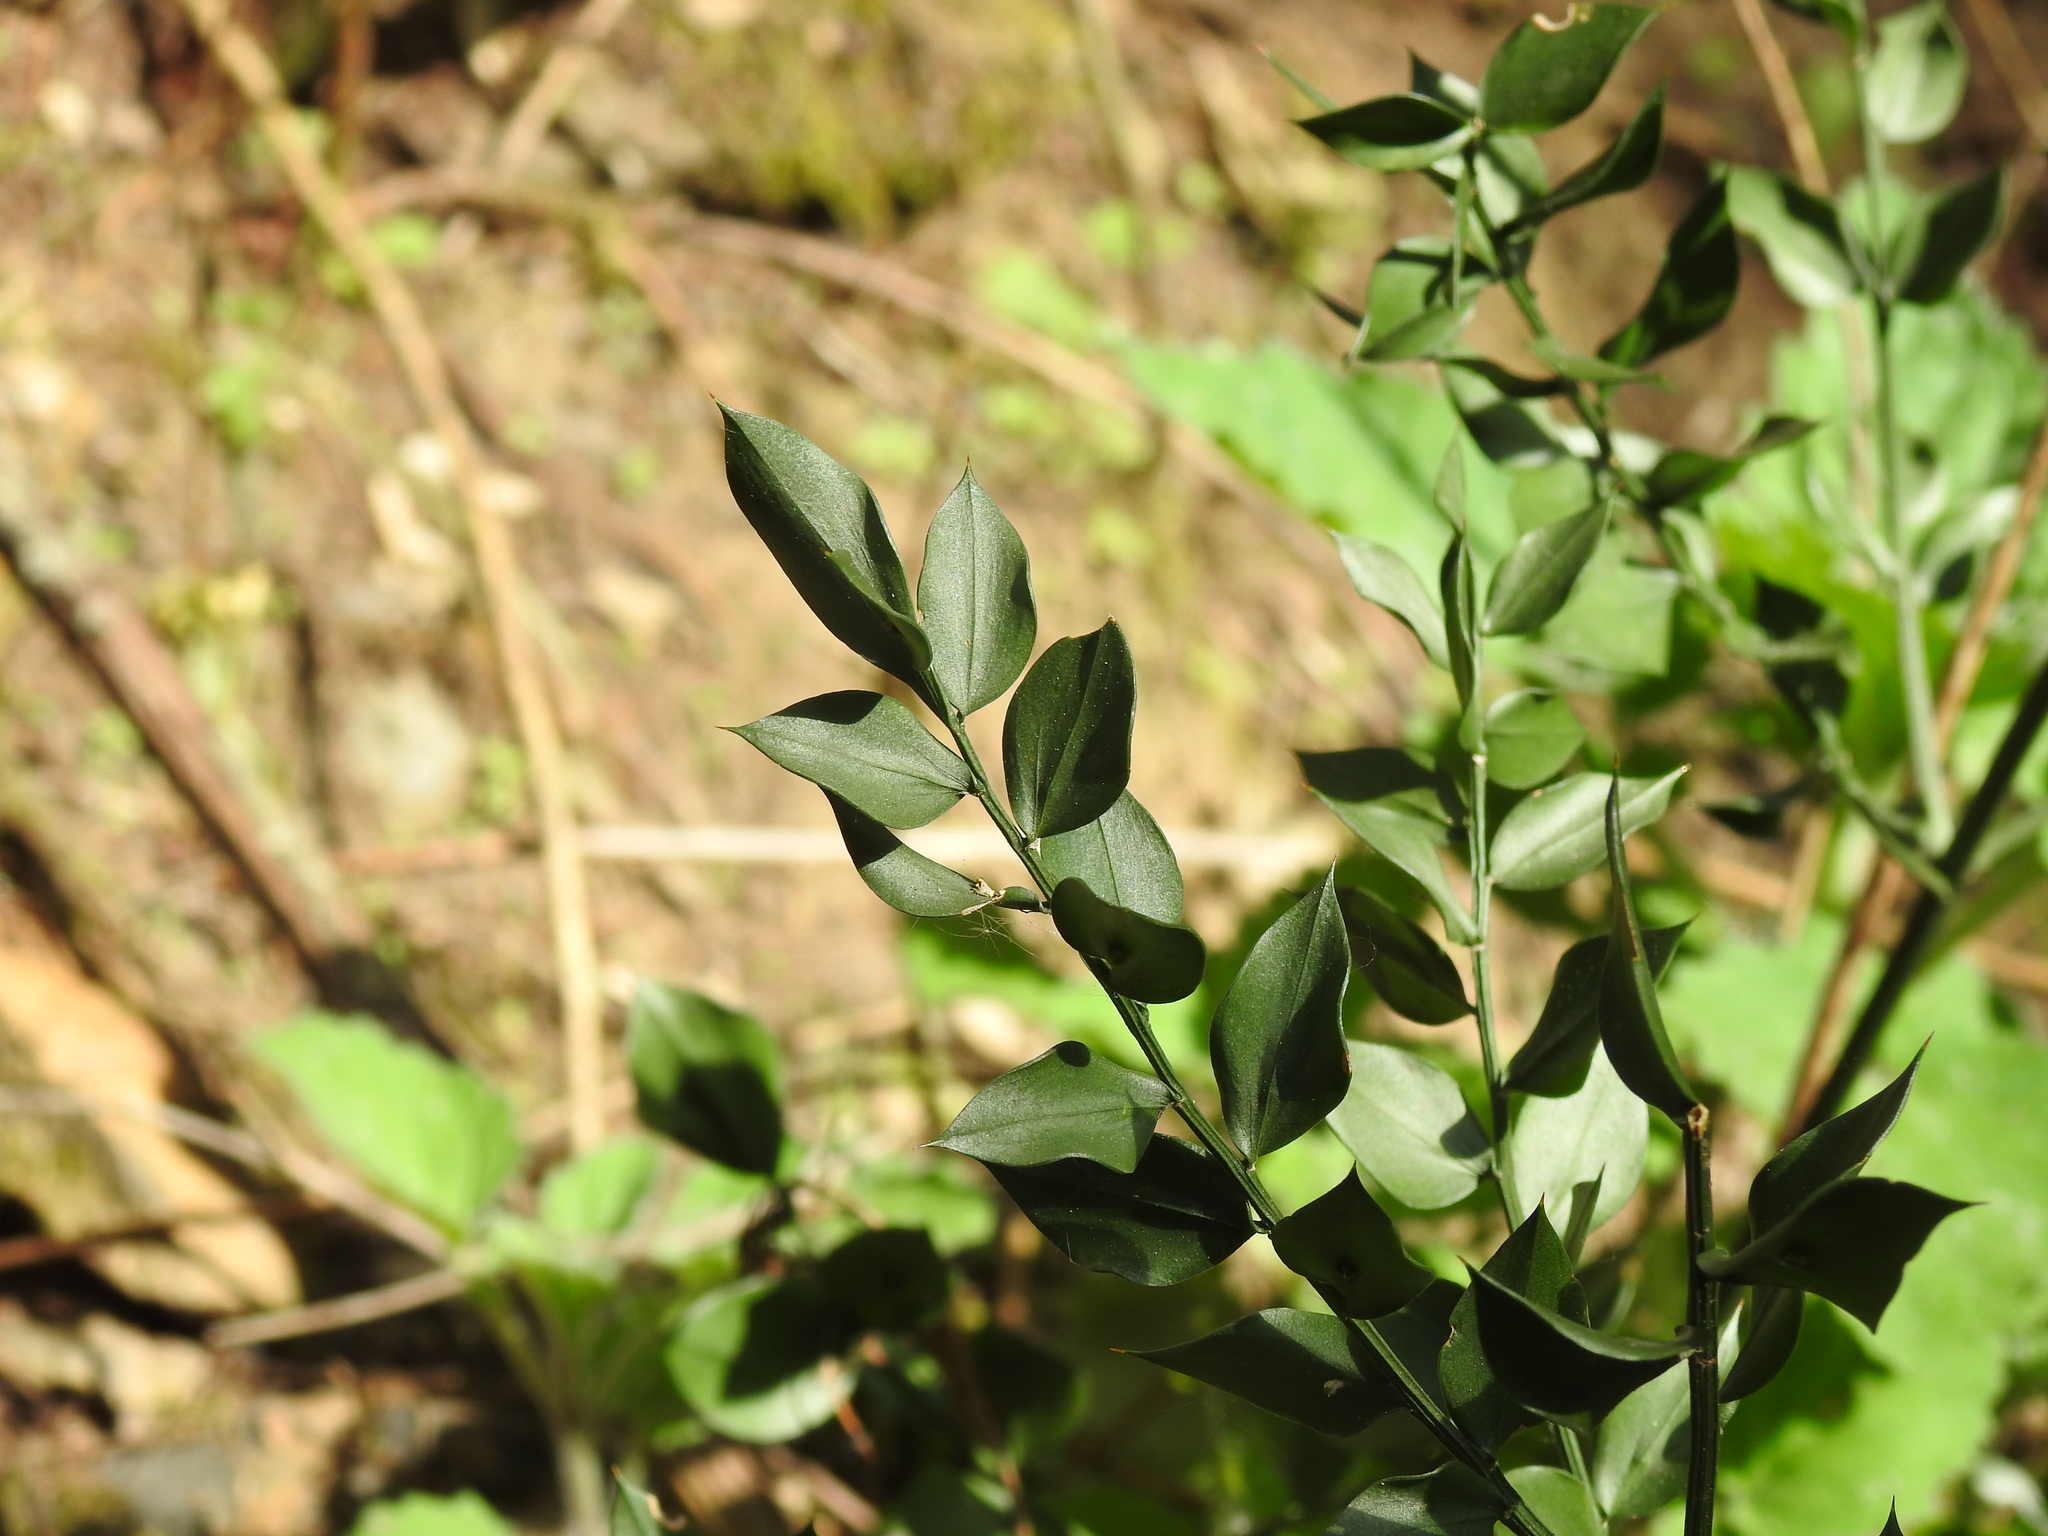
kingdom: Plantae
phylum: Tracheophyta
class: Liliopsida
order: Asparagales
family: Asparagaceae
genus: Ruscus
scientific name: Ruscus aculeatus
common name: Butcher's-broom
